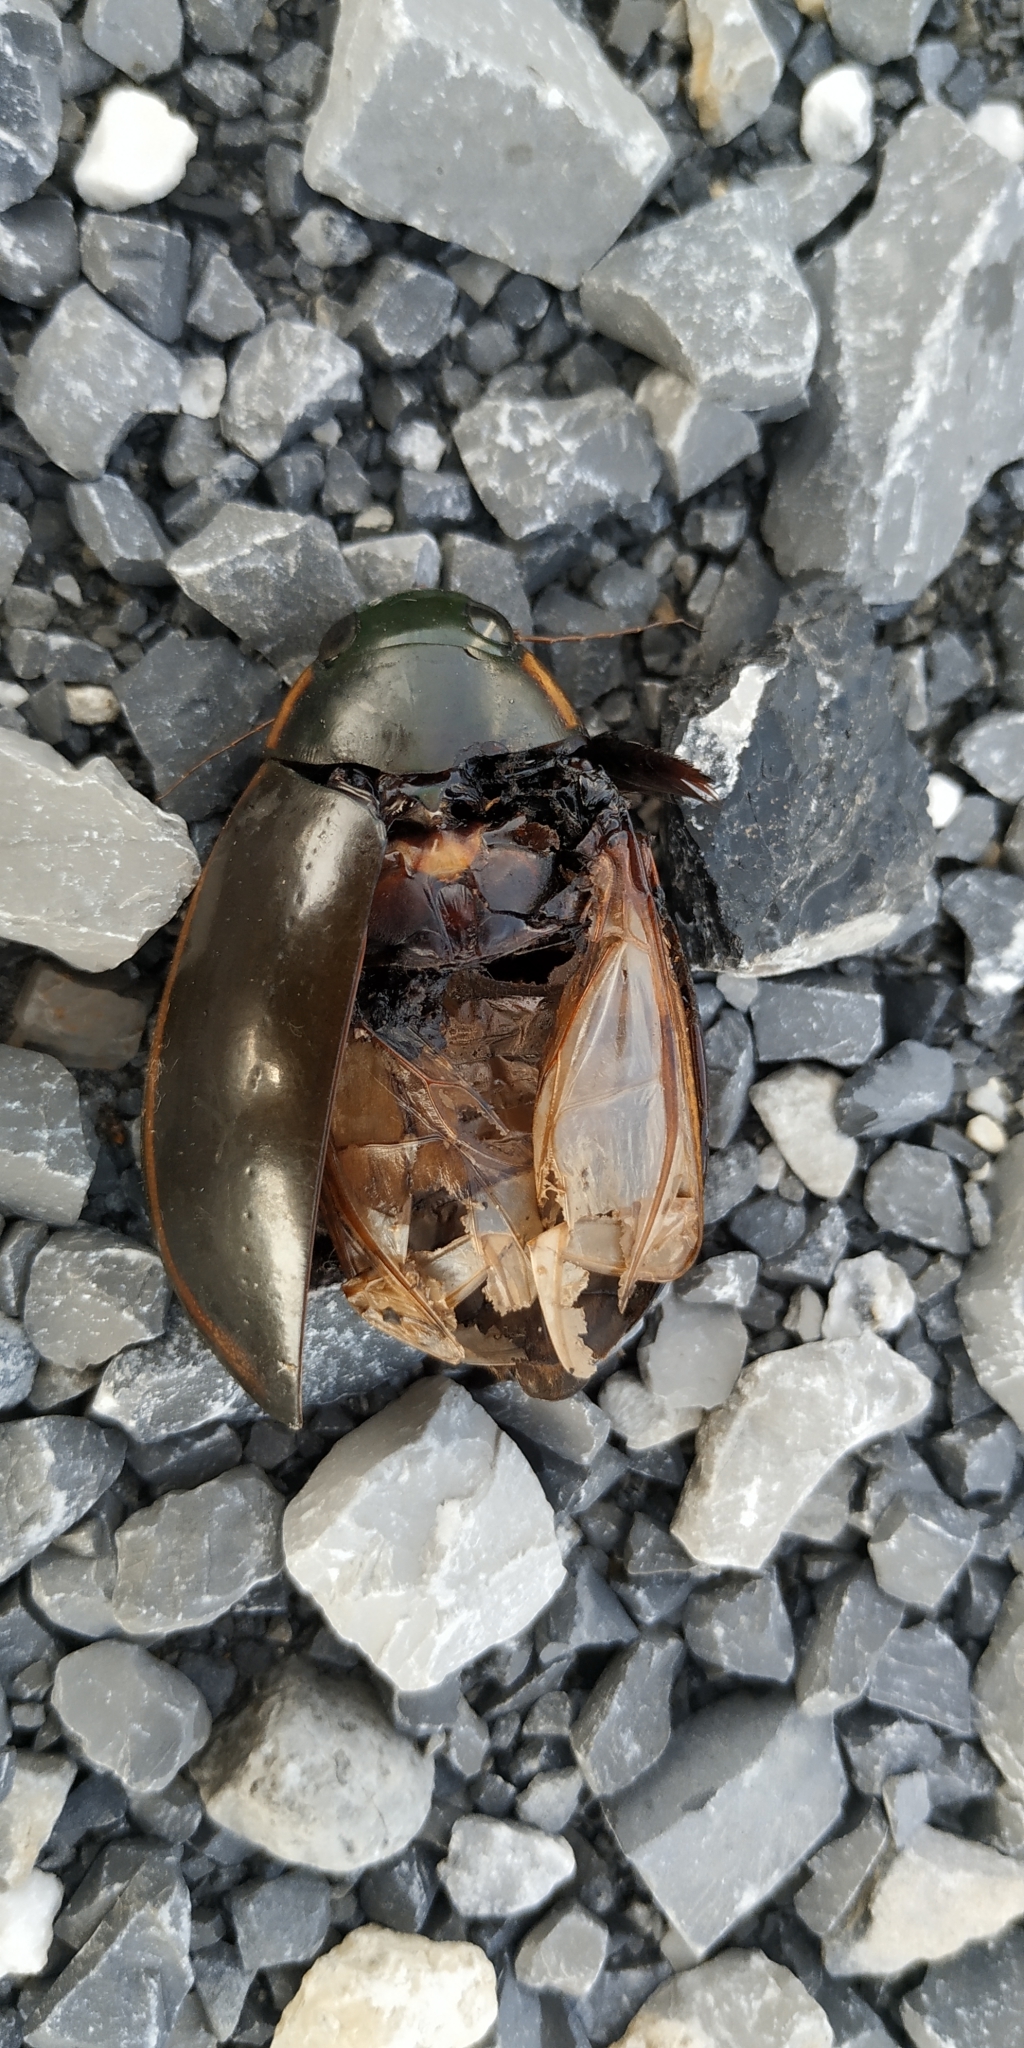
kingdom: Animalia
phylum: Arthropoda
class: Insecta
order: Coleoptera
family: Dytiscidae
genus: Cybister
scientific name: Cybister fimbriolatus
